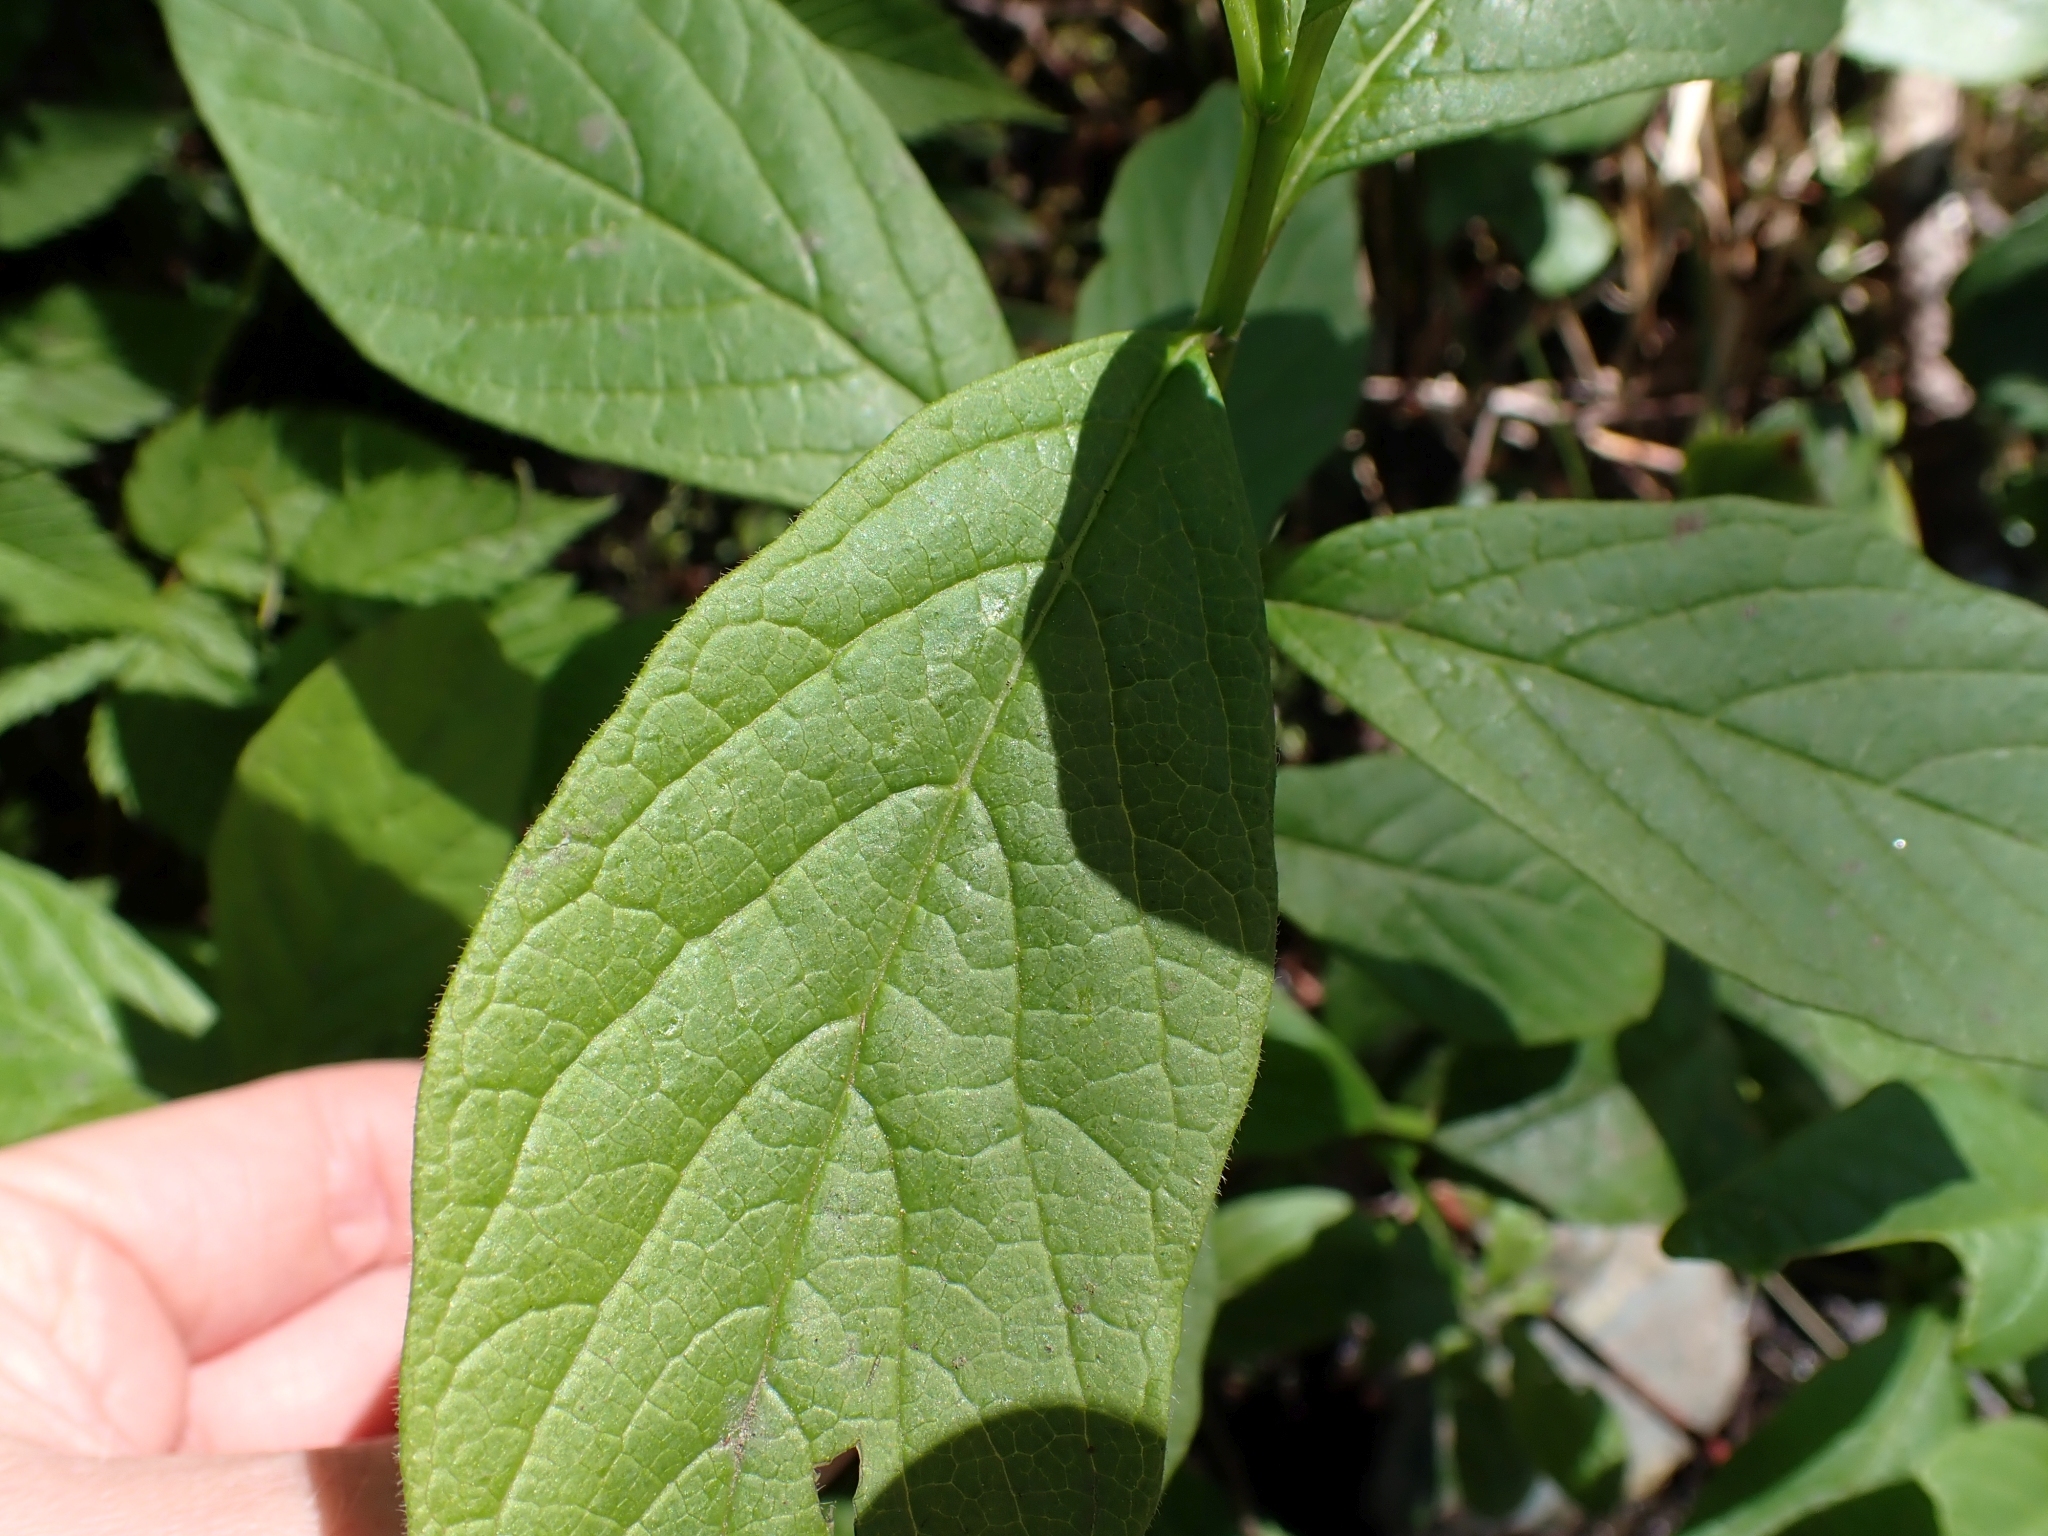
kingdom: Plantae
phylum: Tracheophyta
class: Magnoliopsida
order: Dipsacales
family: Caprifoliaceae
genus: Lonicera
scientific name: Lonicera involucrata
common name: Californian honeysuckle
